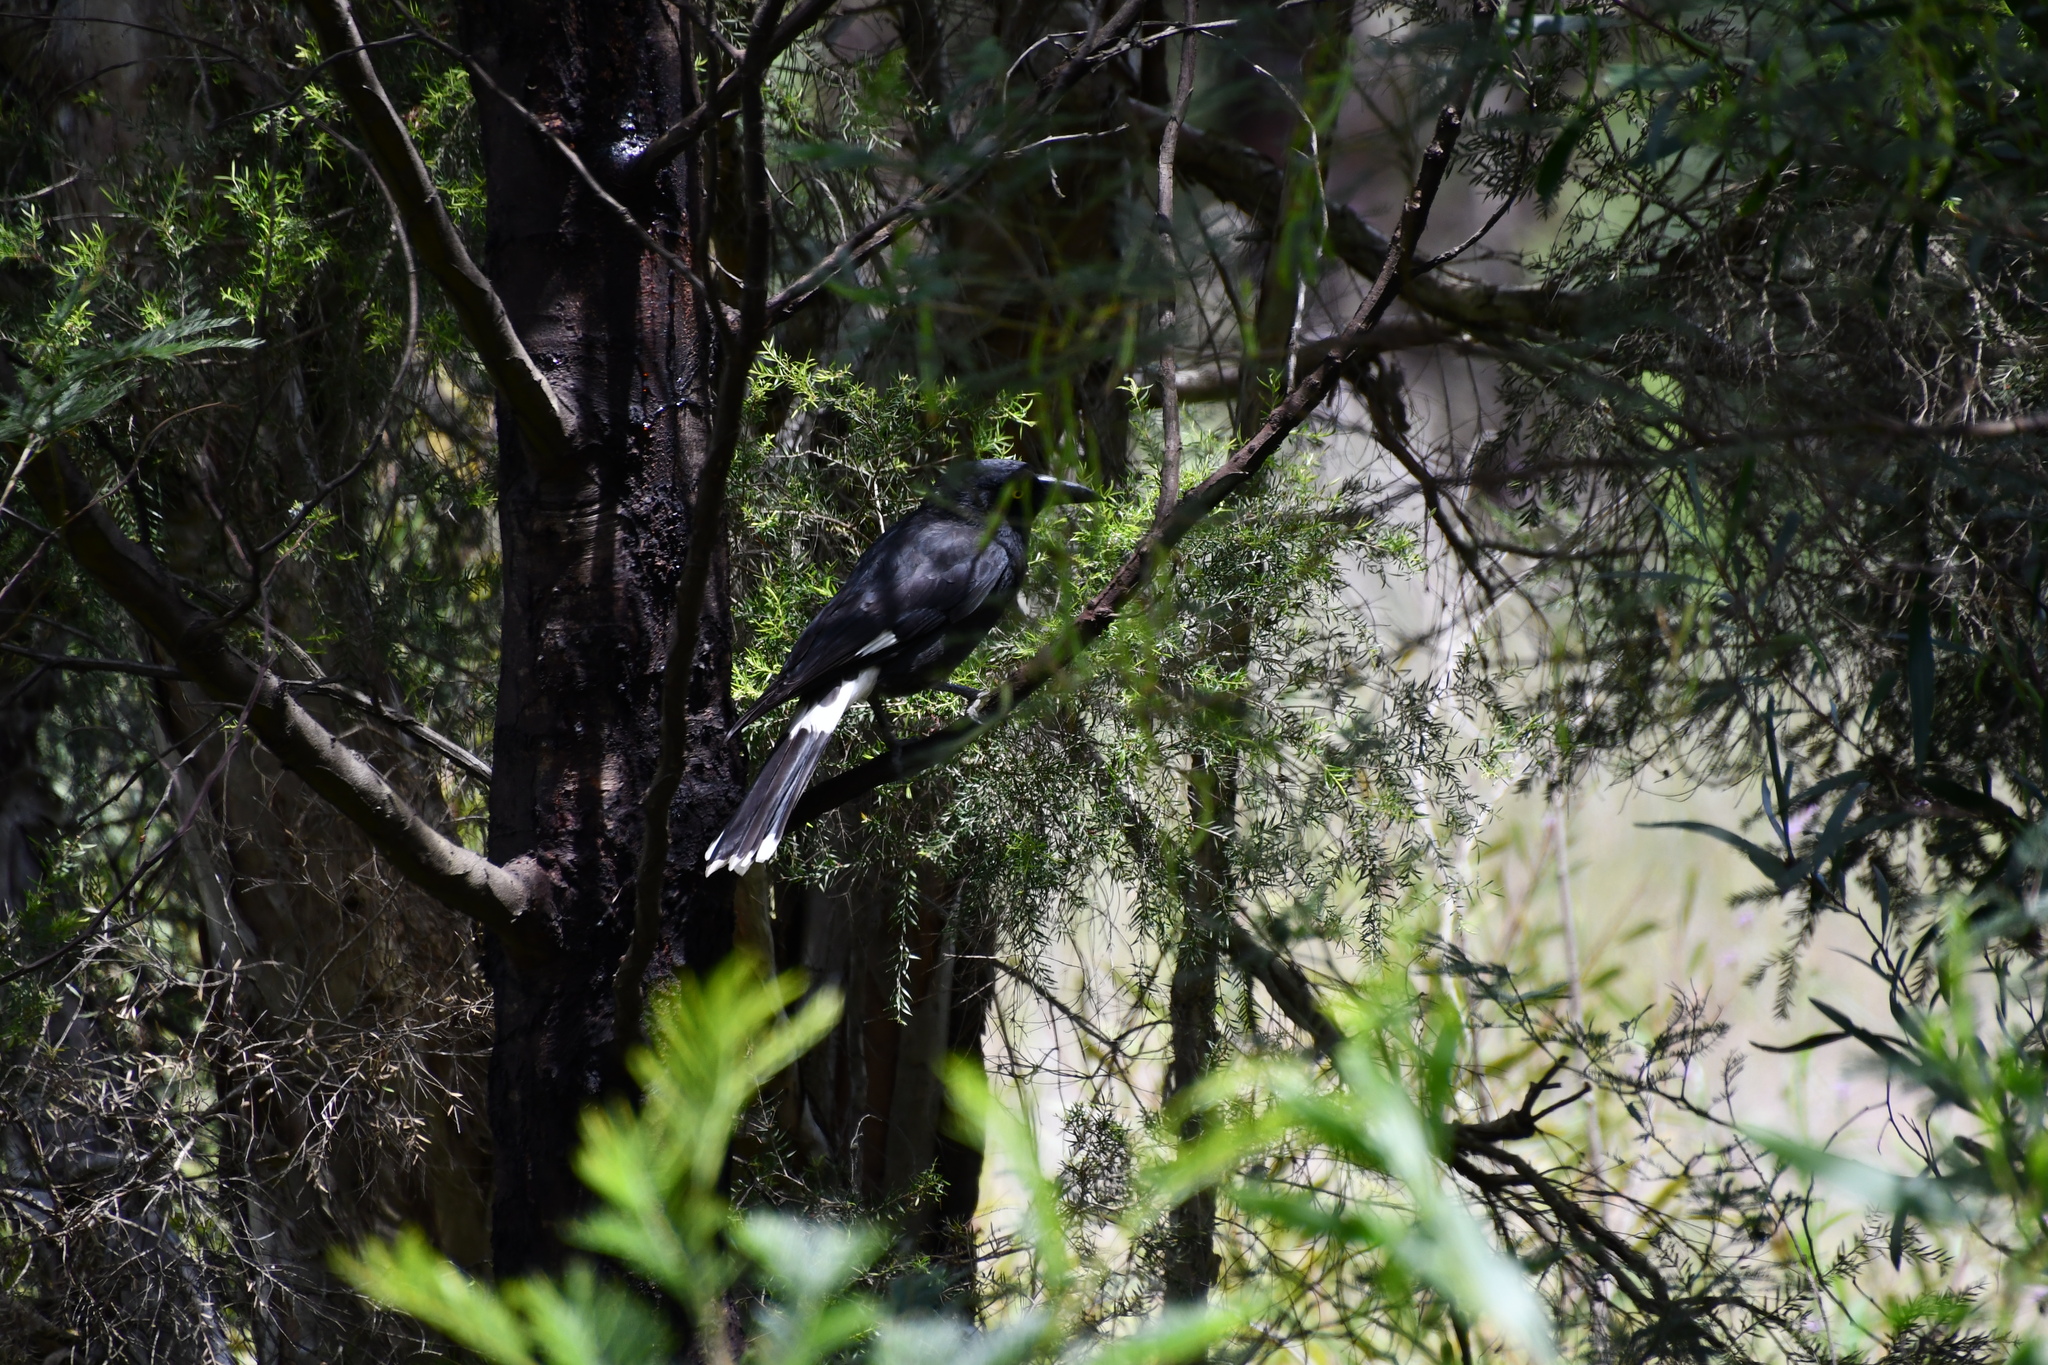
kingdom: Animalia
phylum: Chordata
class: Aves
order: Passeriformes
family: Cracticidae
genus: Strepera
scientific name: Strepera graculina
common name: Pied currawong
